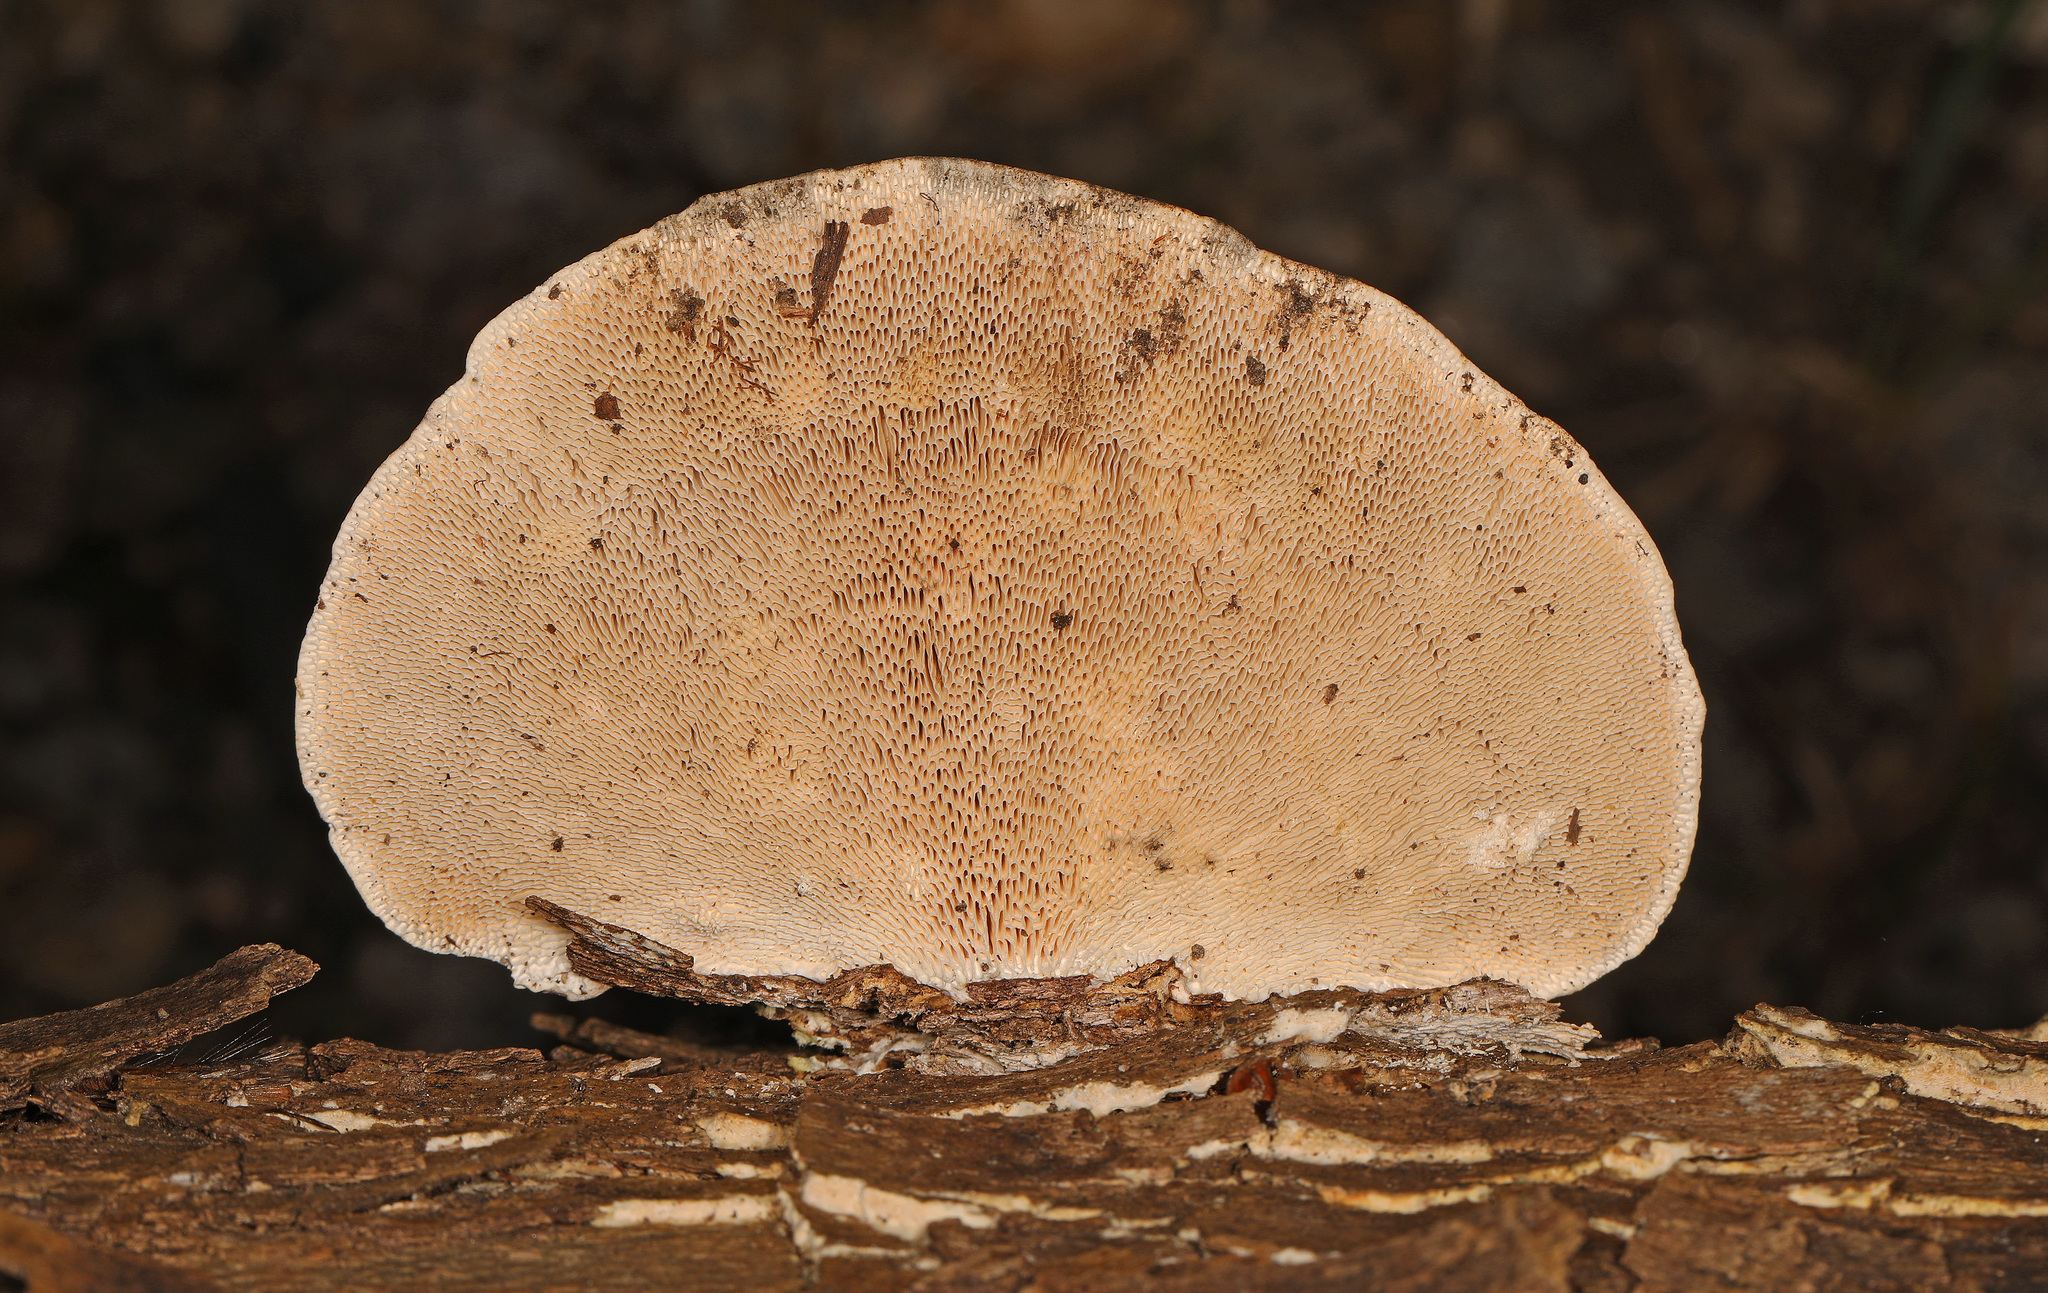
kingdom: Fungi
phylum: Basidiomycota
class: Agaricomycetes
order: Polyporales
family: Polyporaceae
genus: Trametes
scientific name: Trametes gibbosa
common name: Lumpy bracket
